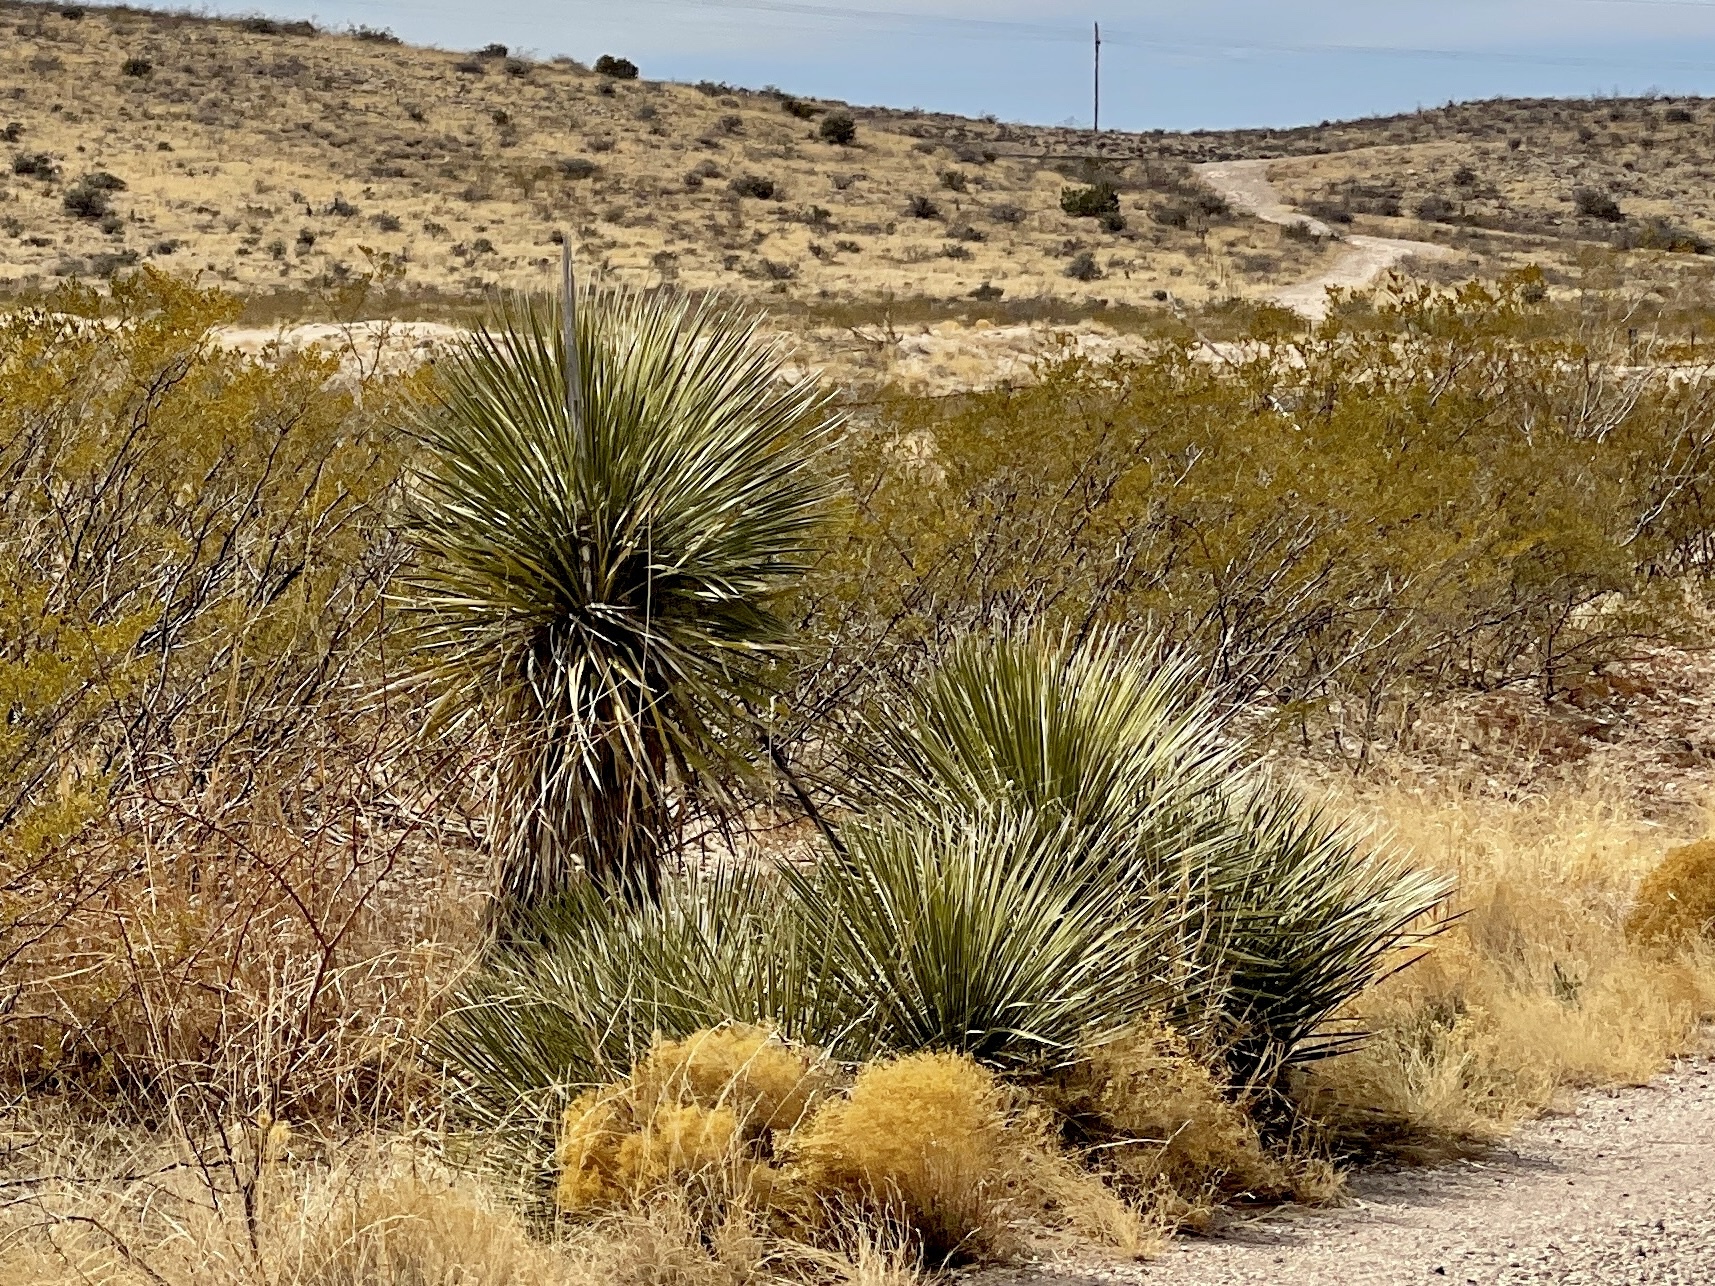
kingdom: Plantae
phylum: Tracheophyta
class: Liliopsida
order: Asparagales
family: Asparagaceae
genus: Yucca
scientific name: Yucca elata
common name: Palmella
